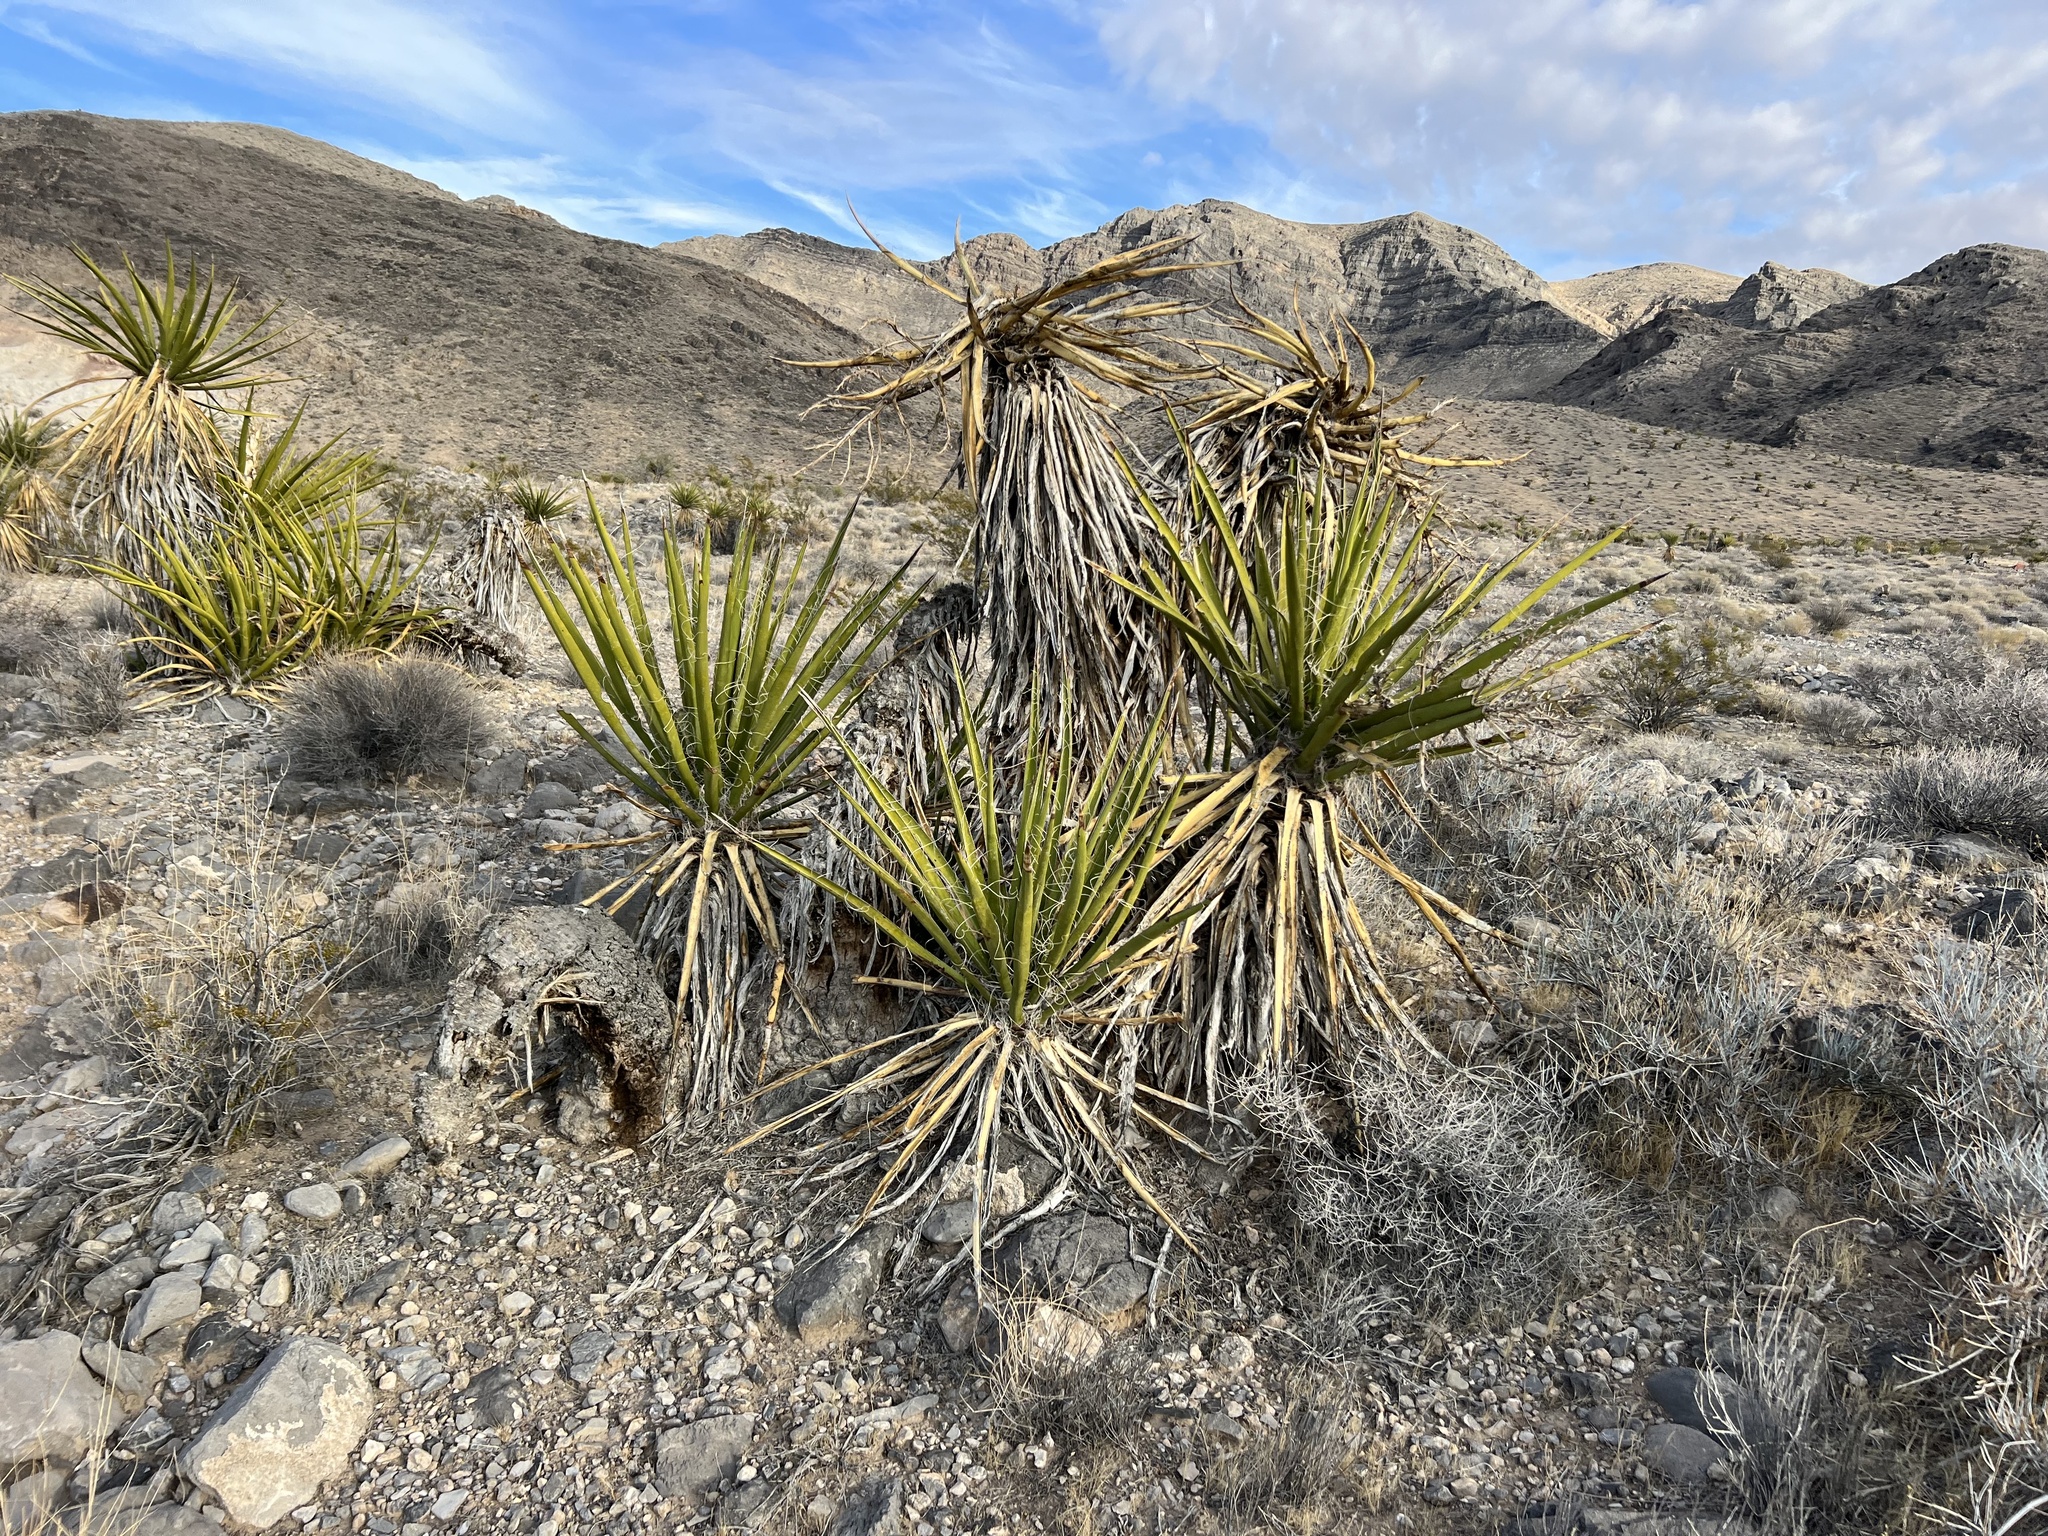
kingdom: Plantae
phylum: Tracheophyta
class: Liliopsida
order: Asparagales
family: Asparagaceae
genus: Yucca
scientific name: Yucca schidigera
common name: Mojave yucca
